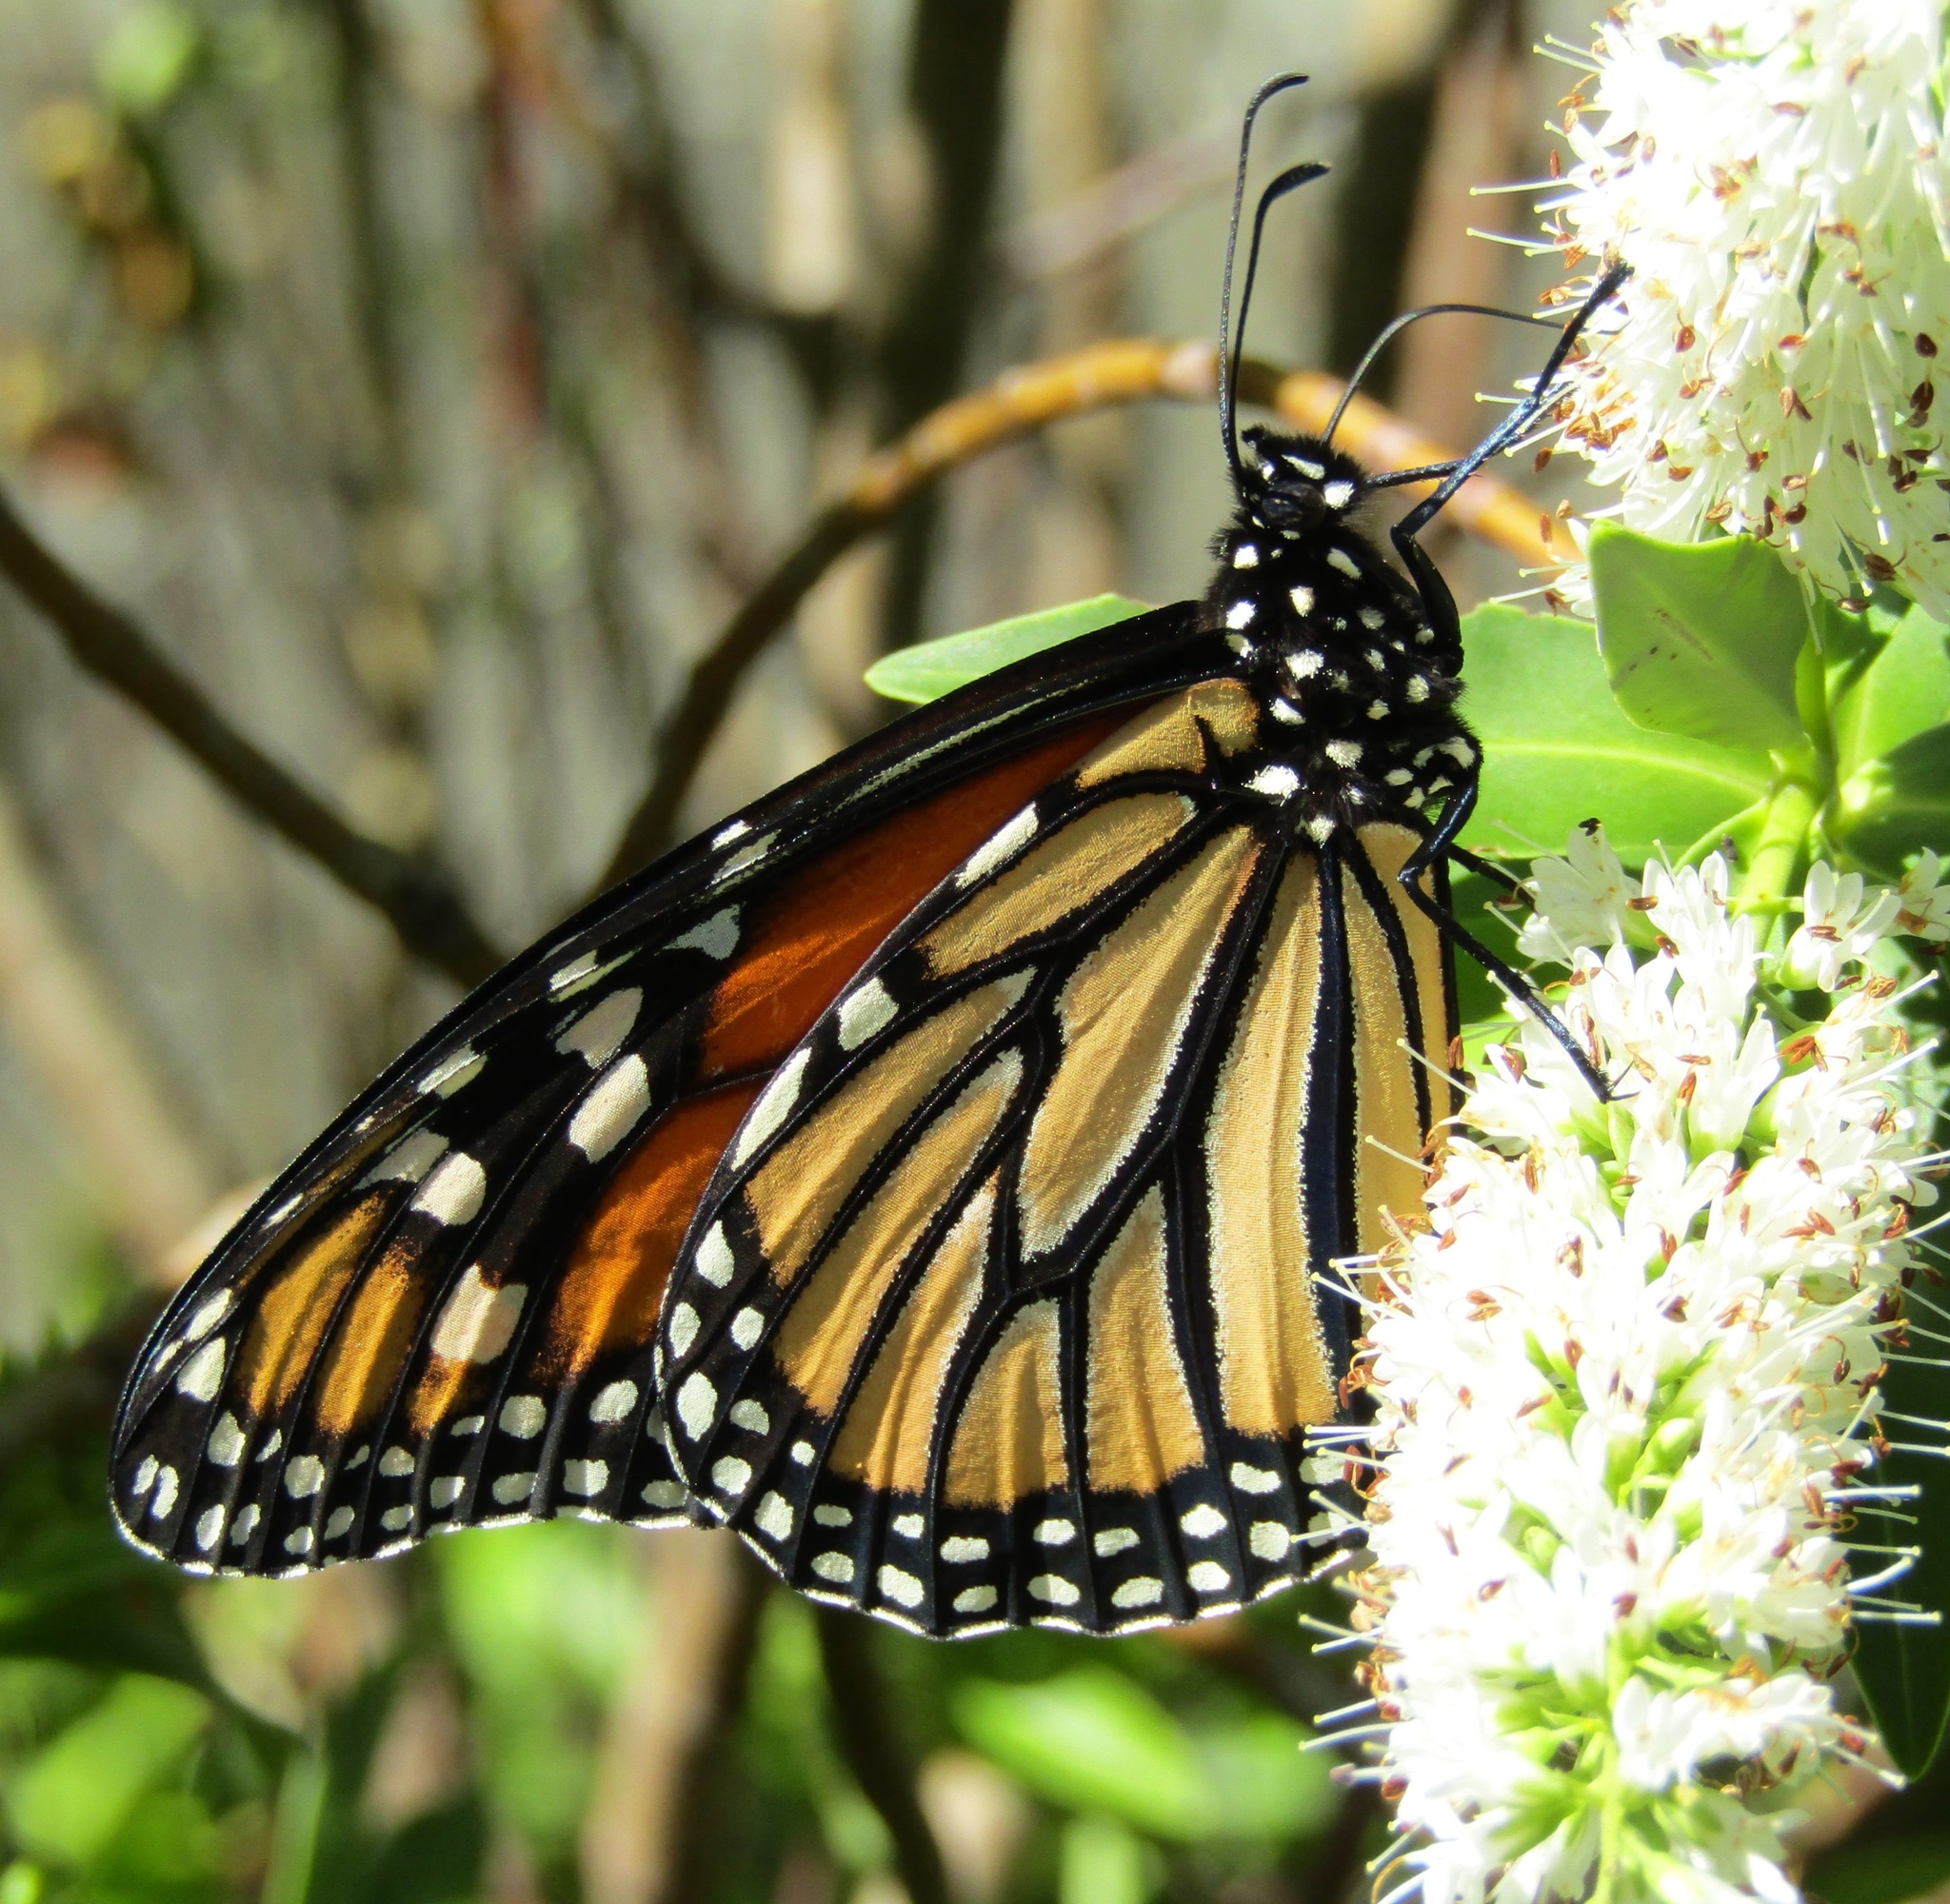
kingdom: Animalia
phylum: Arthropoda
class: Insecta
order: Lepidoptera
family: Nymphalidae
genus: Danaus
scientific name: Danaus plexippus
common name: Monarch
